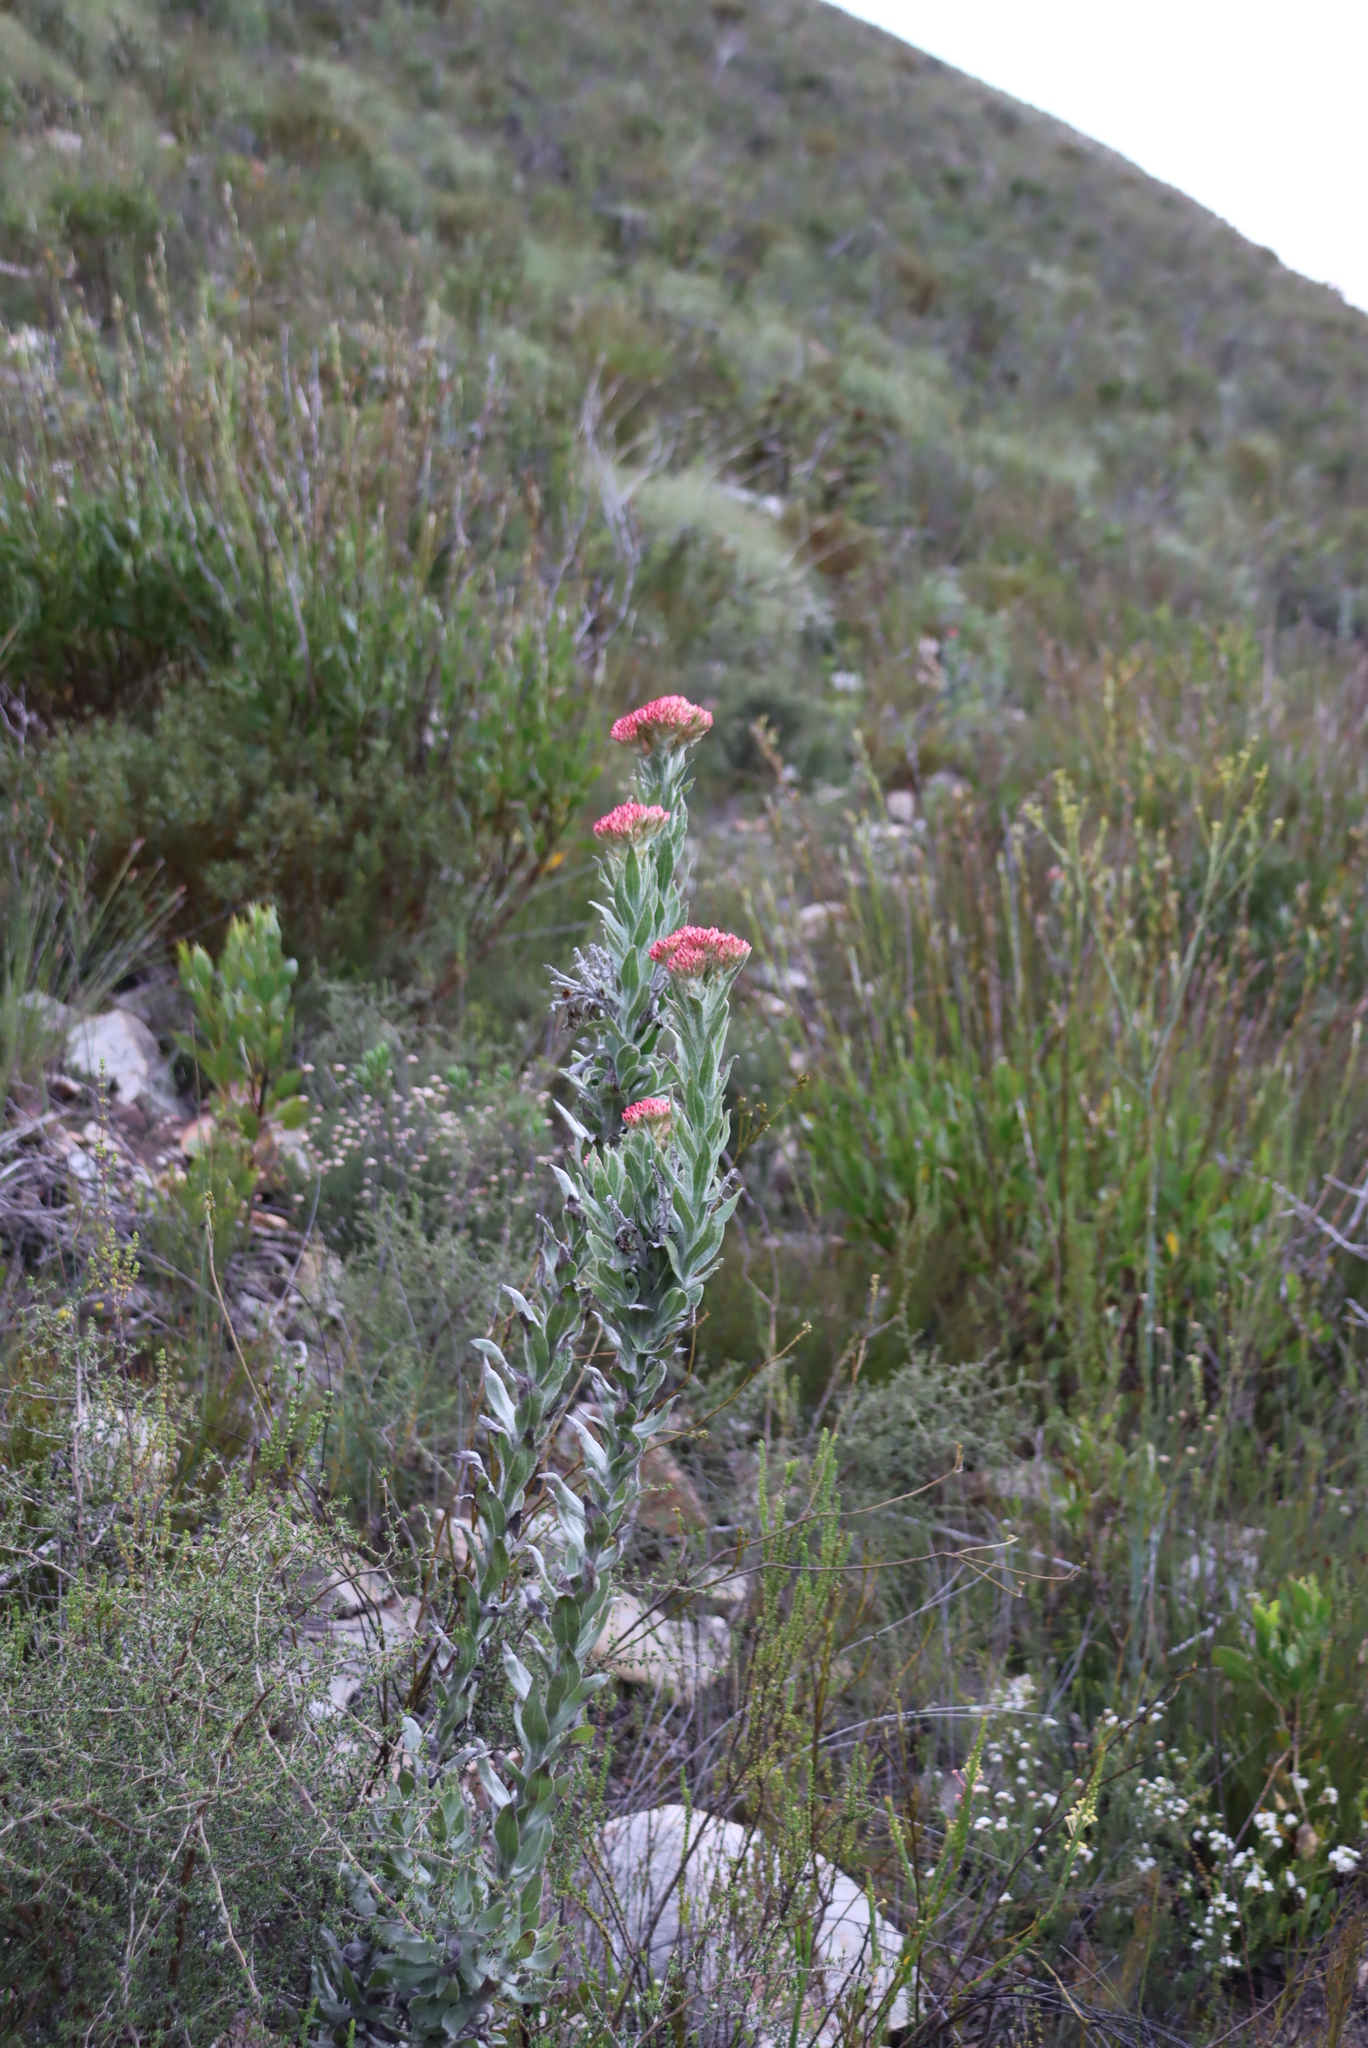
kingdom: Plantae
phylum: Tracheophyta
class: Magnoliopsida
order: Asterales
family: Asteraceae
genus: Syncarpha
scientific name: Syncarpha milleflora
